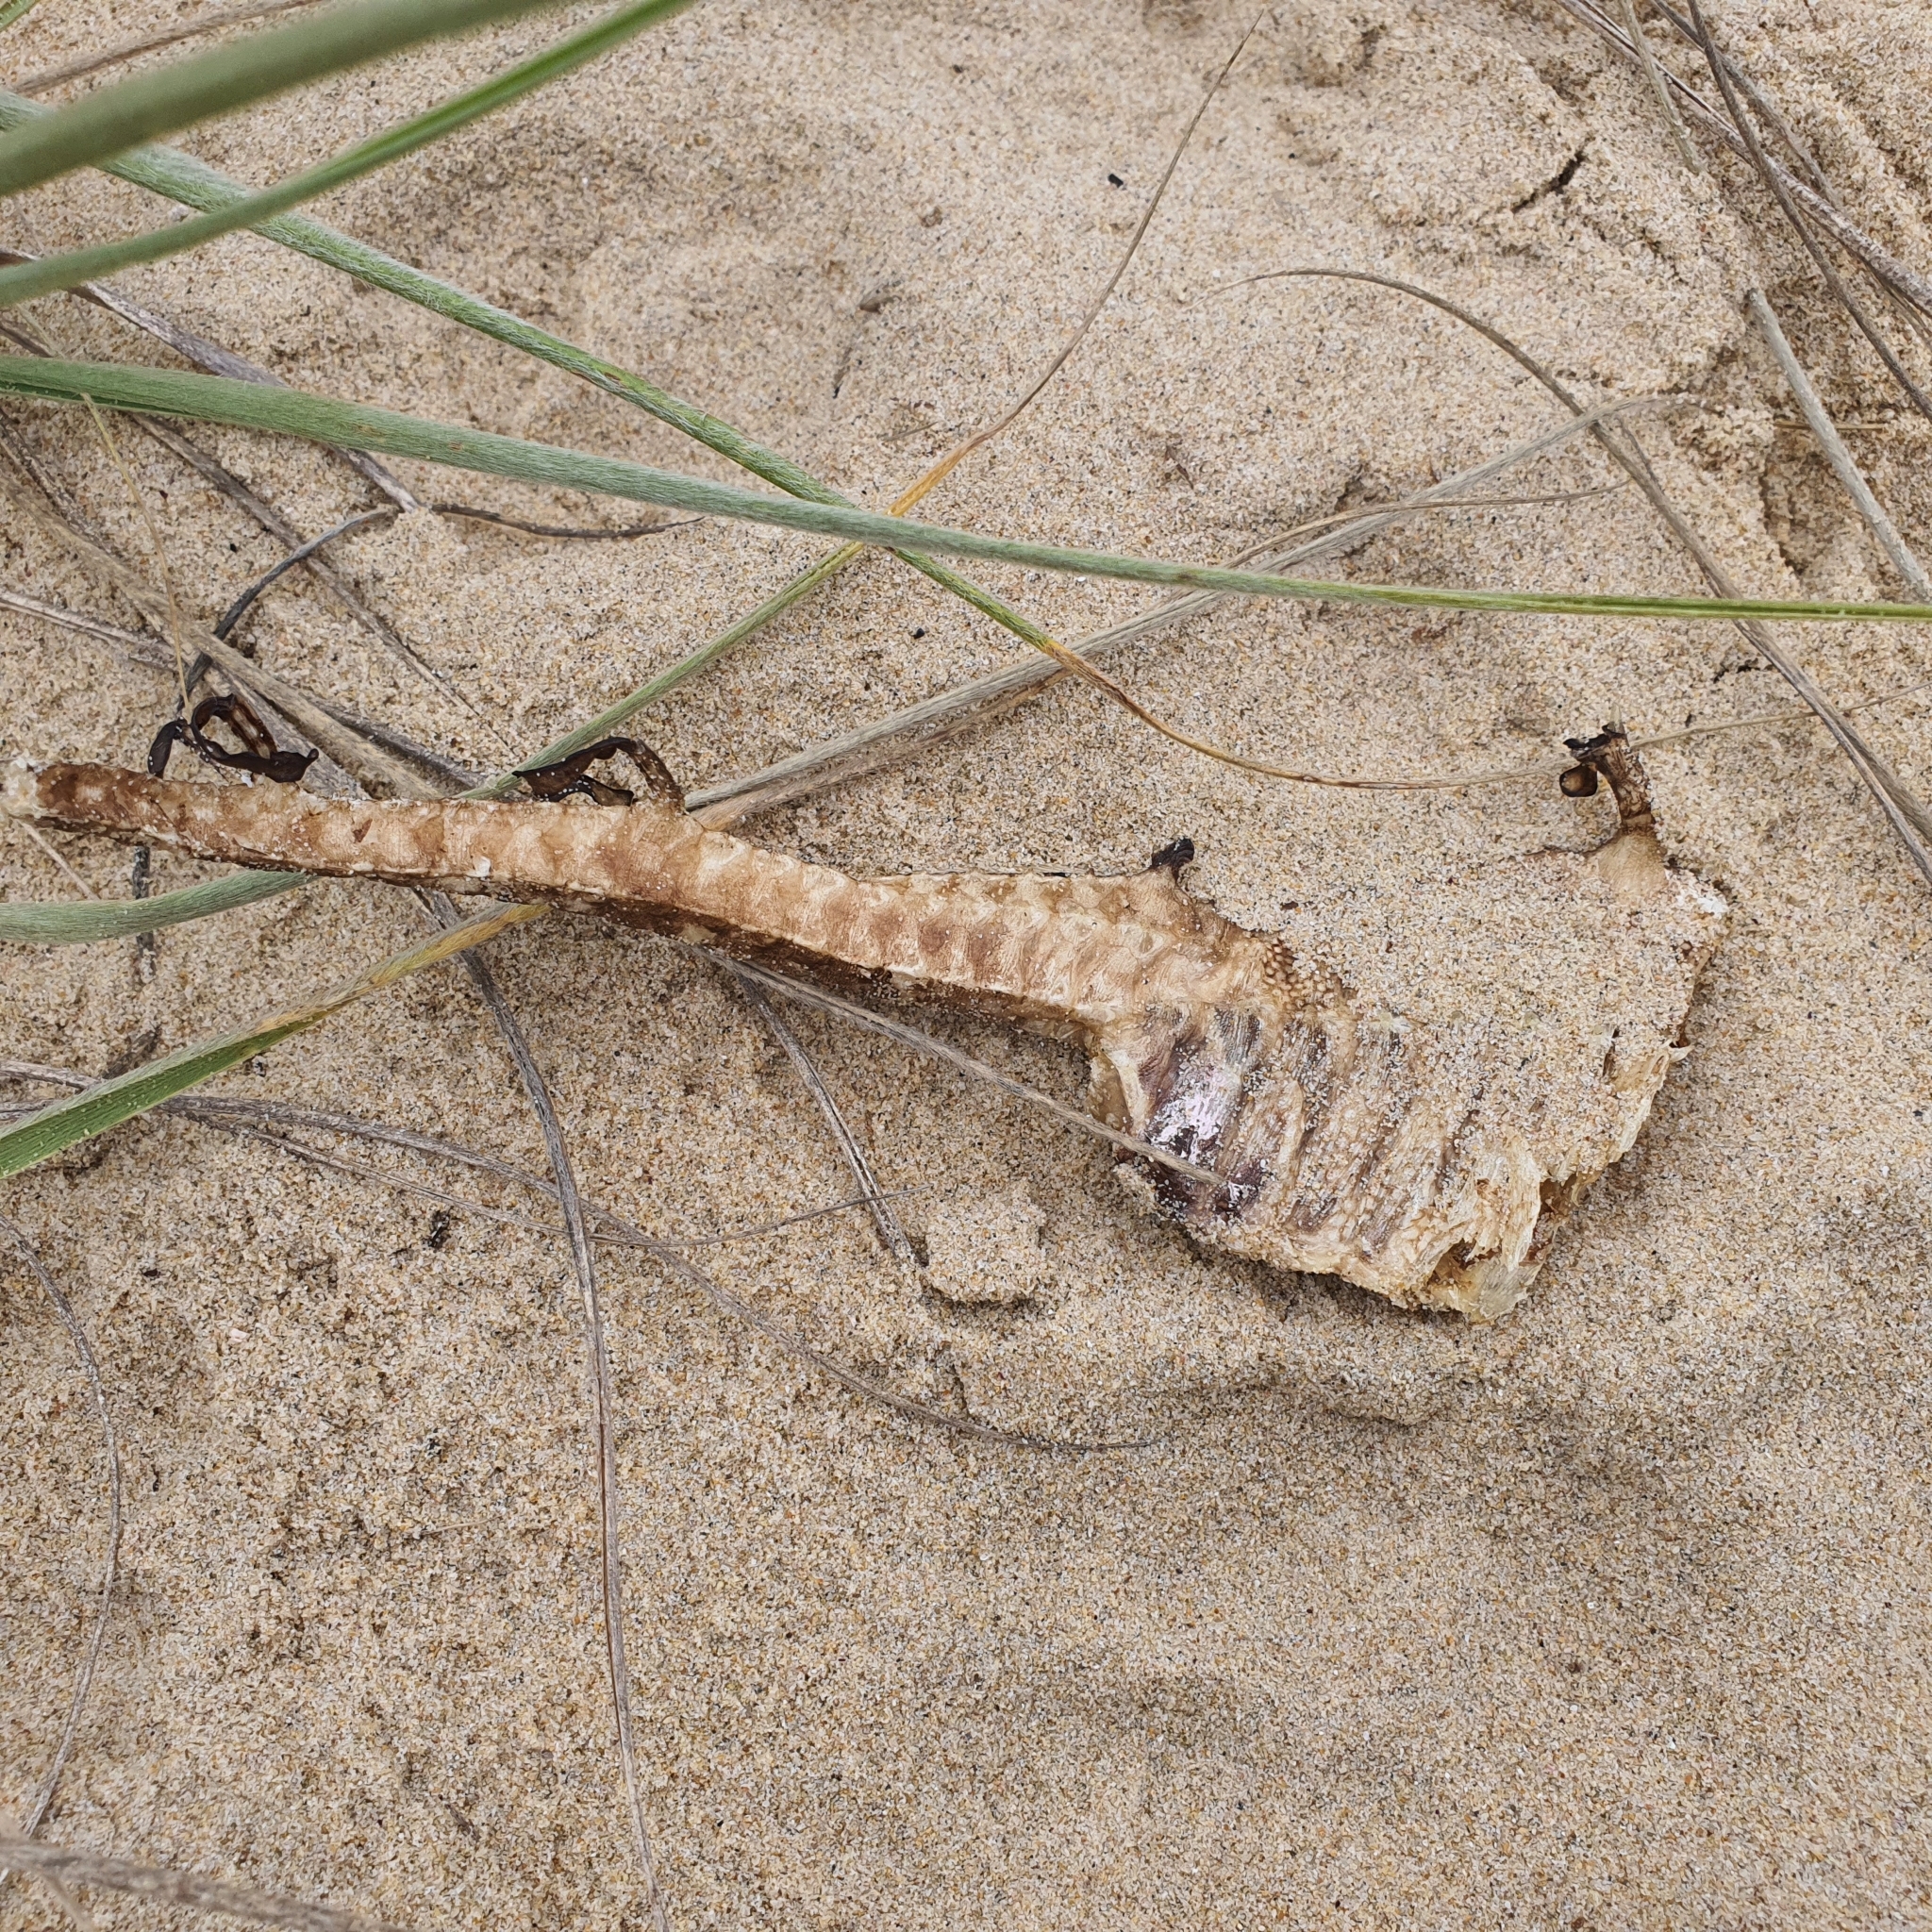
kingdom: Animalia
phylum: Chordata
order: Syngnathiformes
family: Syngnathidae
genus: Phyllopteryx
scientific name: Phyllopteryx taeniolatus
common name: Common seadragon
